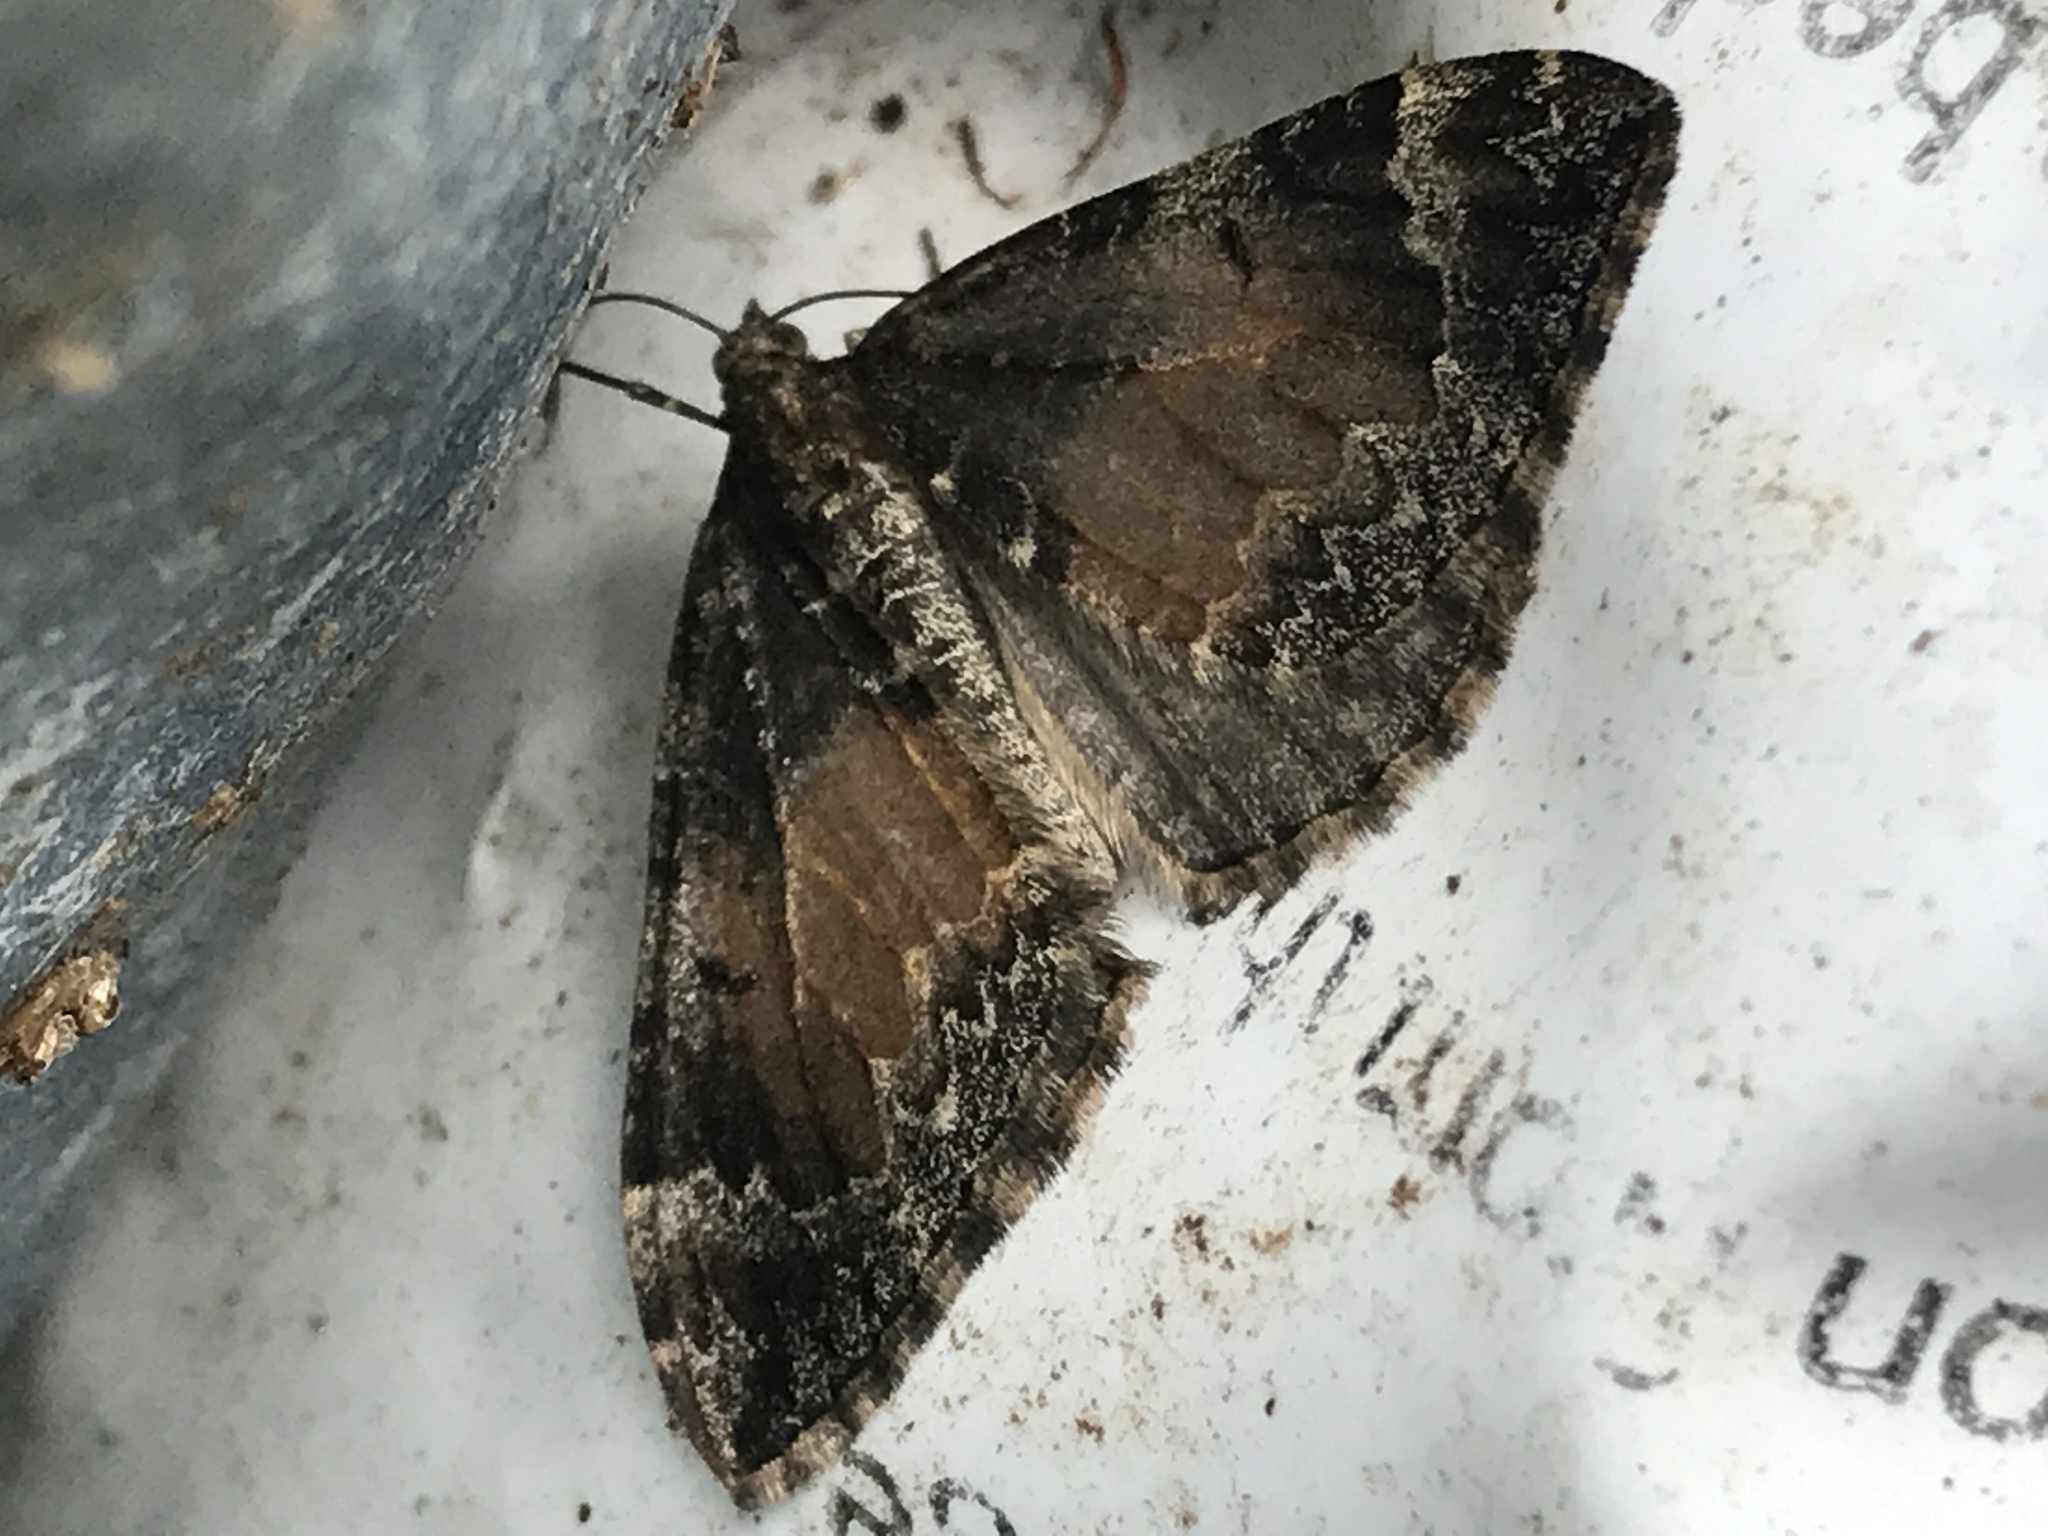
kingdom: Animalia
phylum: Arthropoda
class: Insecta
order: Lepidoptera
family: Geometridae
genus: Dysstroma
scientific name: Dysstroma truncata
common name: Common marbled carpet
